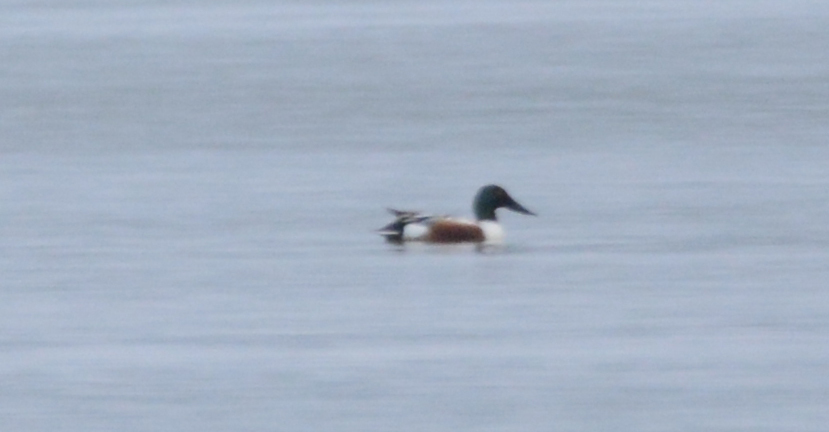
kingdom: Animalia
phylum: Chordata
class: Aves
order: Anseriformes
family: Anatidae
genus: Spatula
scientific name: Spatula clypeata
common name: Northern shoveler
